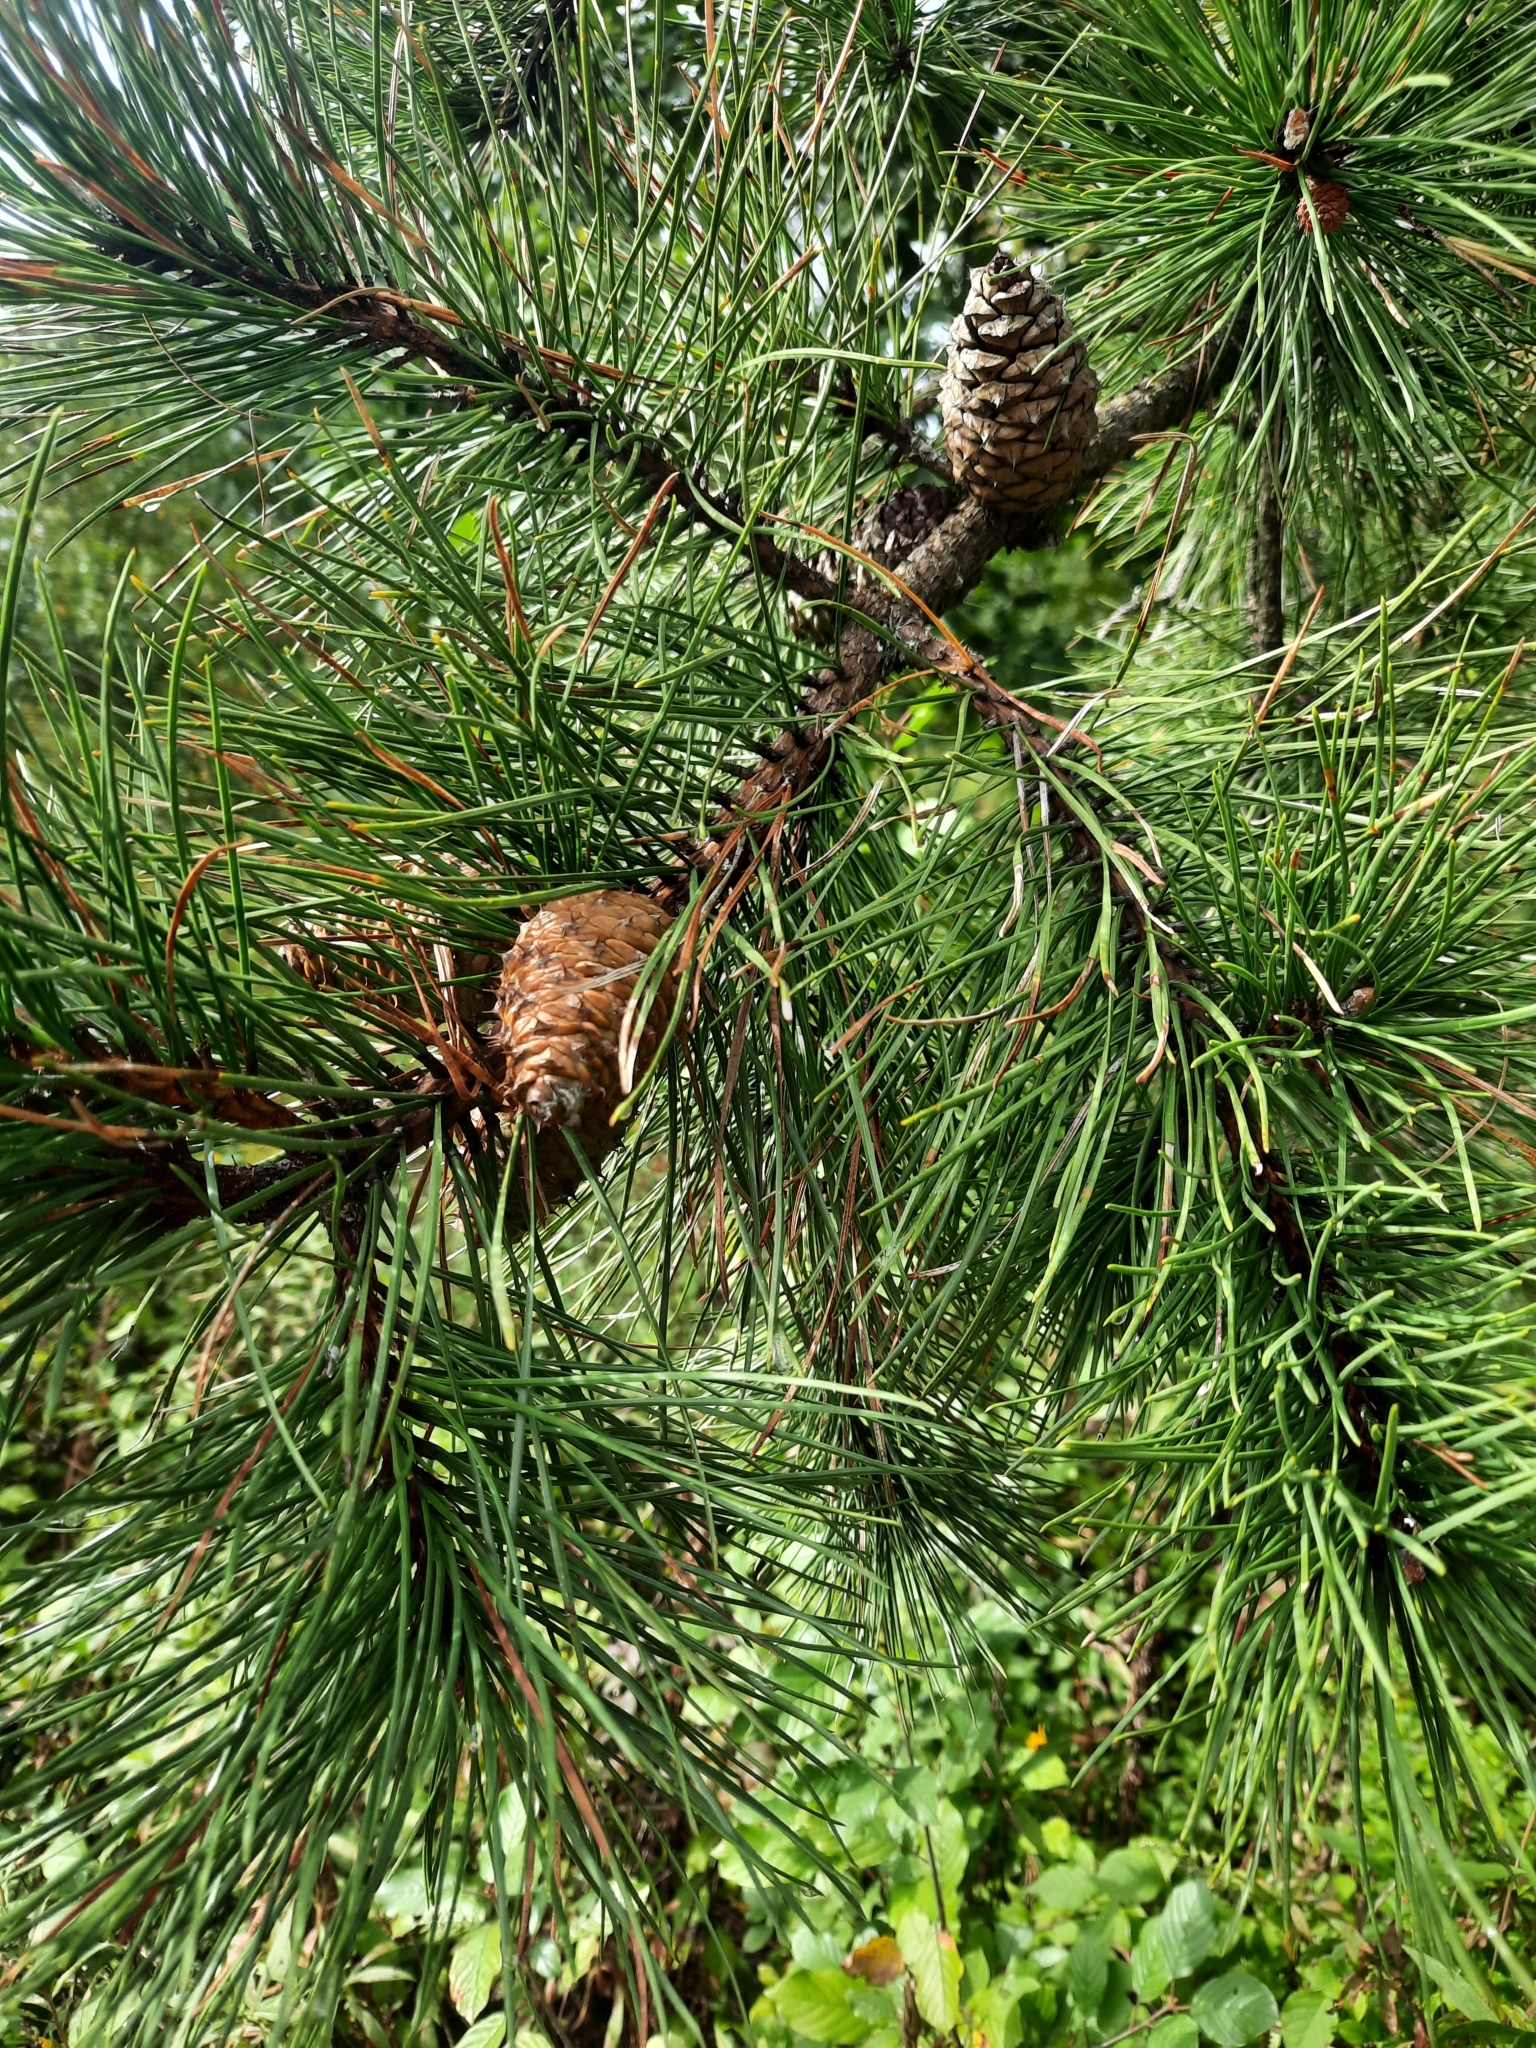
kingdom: Plantae
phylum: Tracheophyta
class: Pinopsida
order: Pinales
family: Pinaceae
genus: Pinus
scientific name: Pinus rigida
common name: Pitch pine
